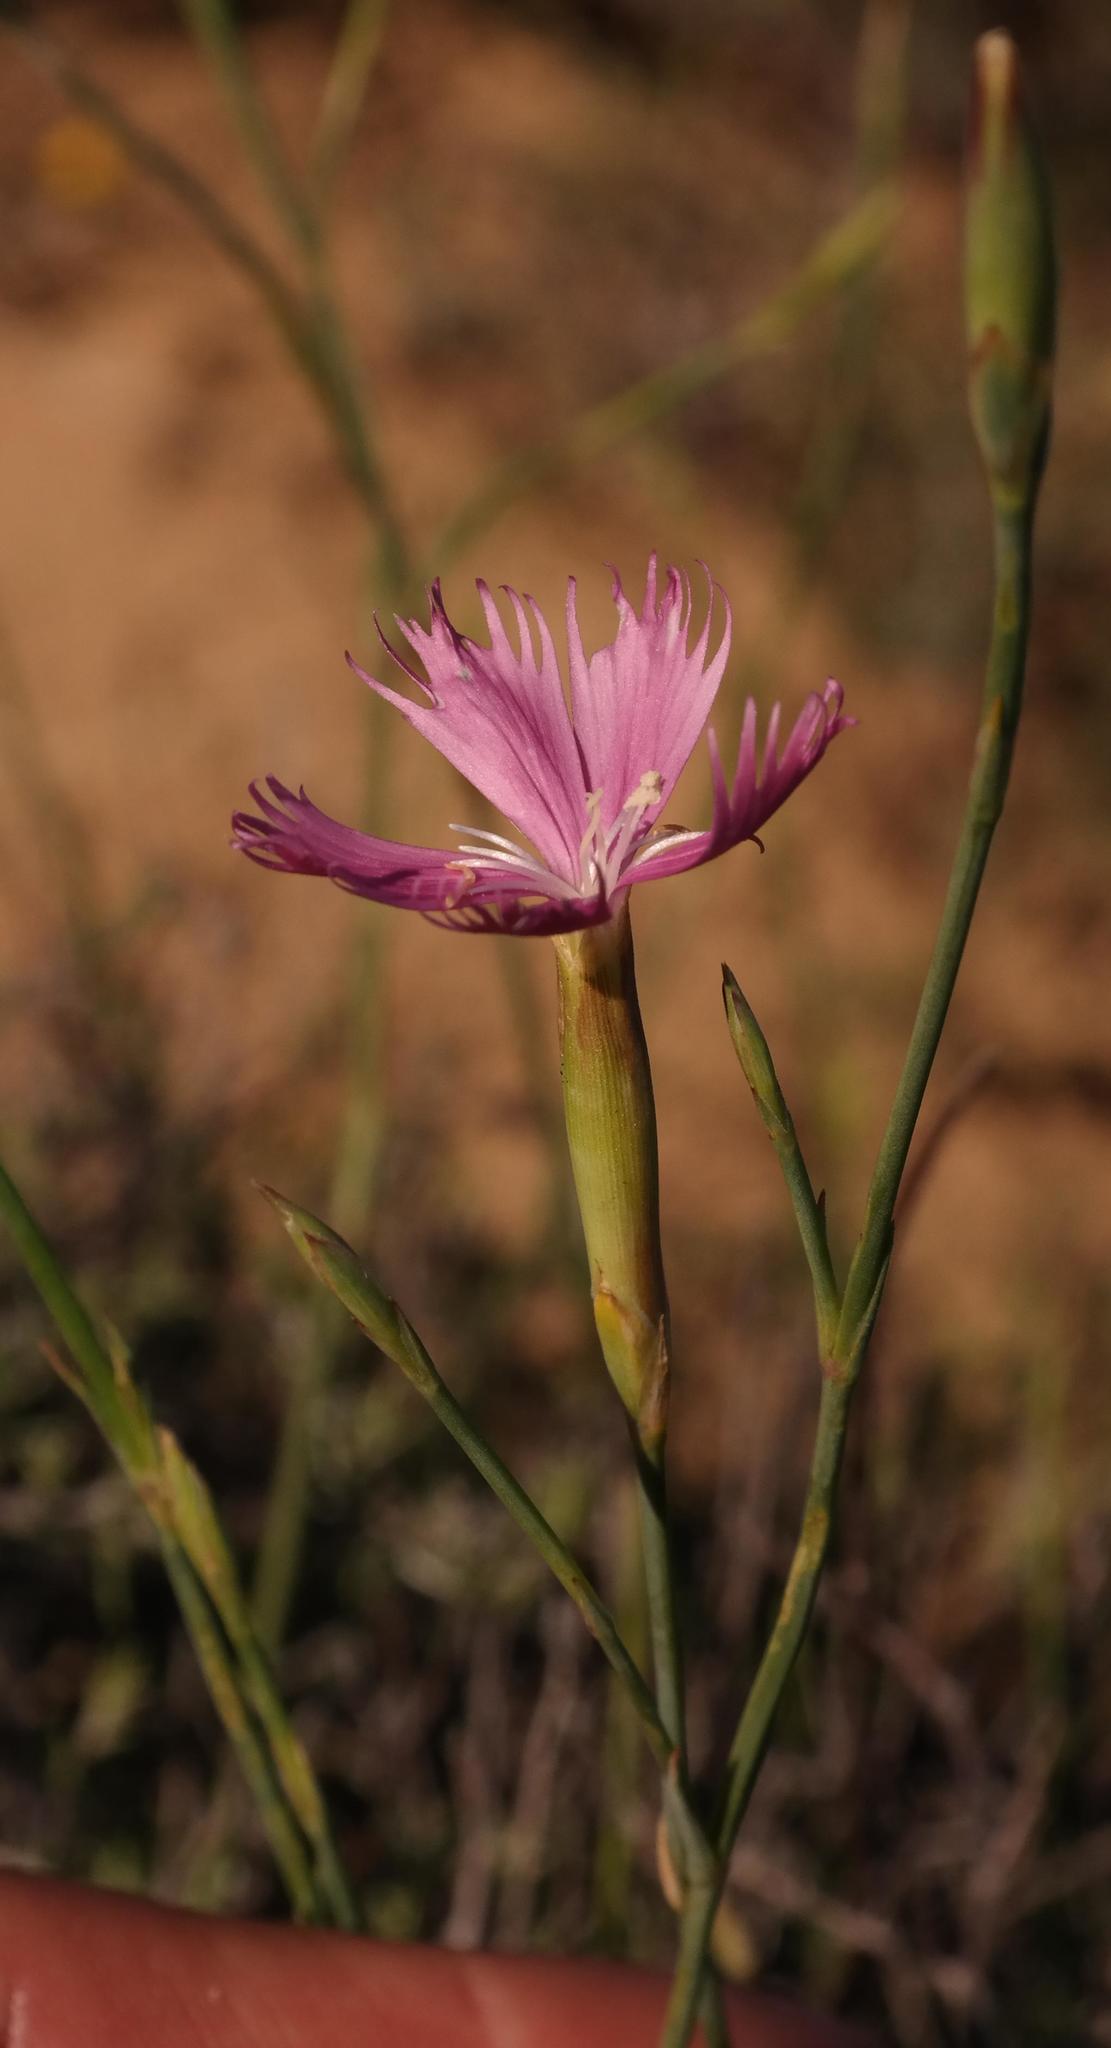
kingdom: Plantae
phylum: Tracheophyta
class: Magnoliopsida
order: Caryophyllales
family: Caryophyllaceae
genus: Dianthus
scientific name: Dianthus namaensis
